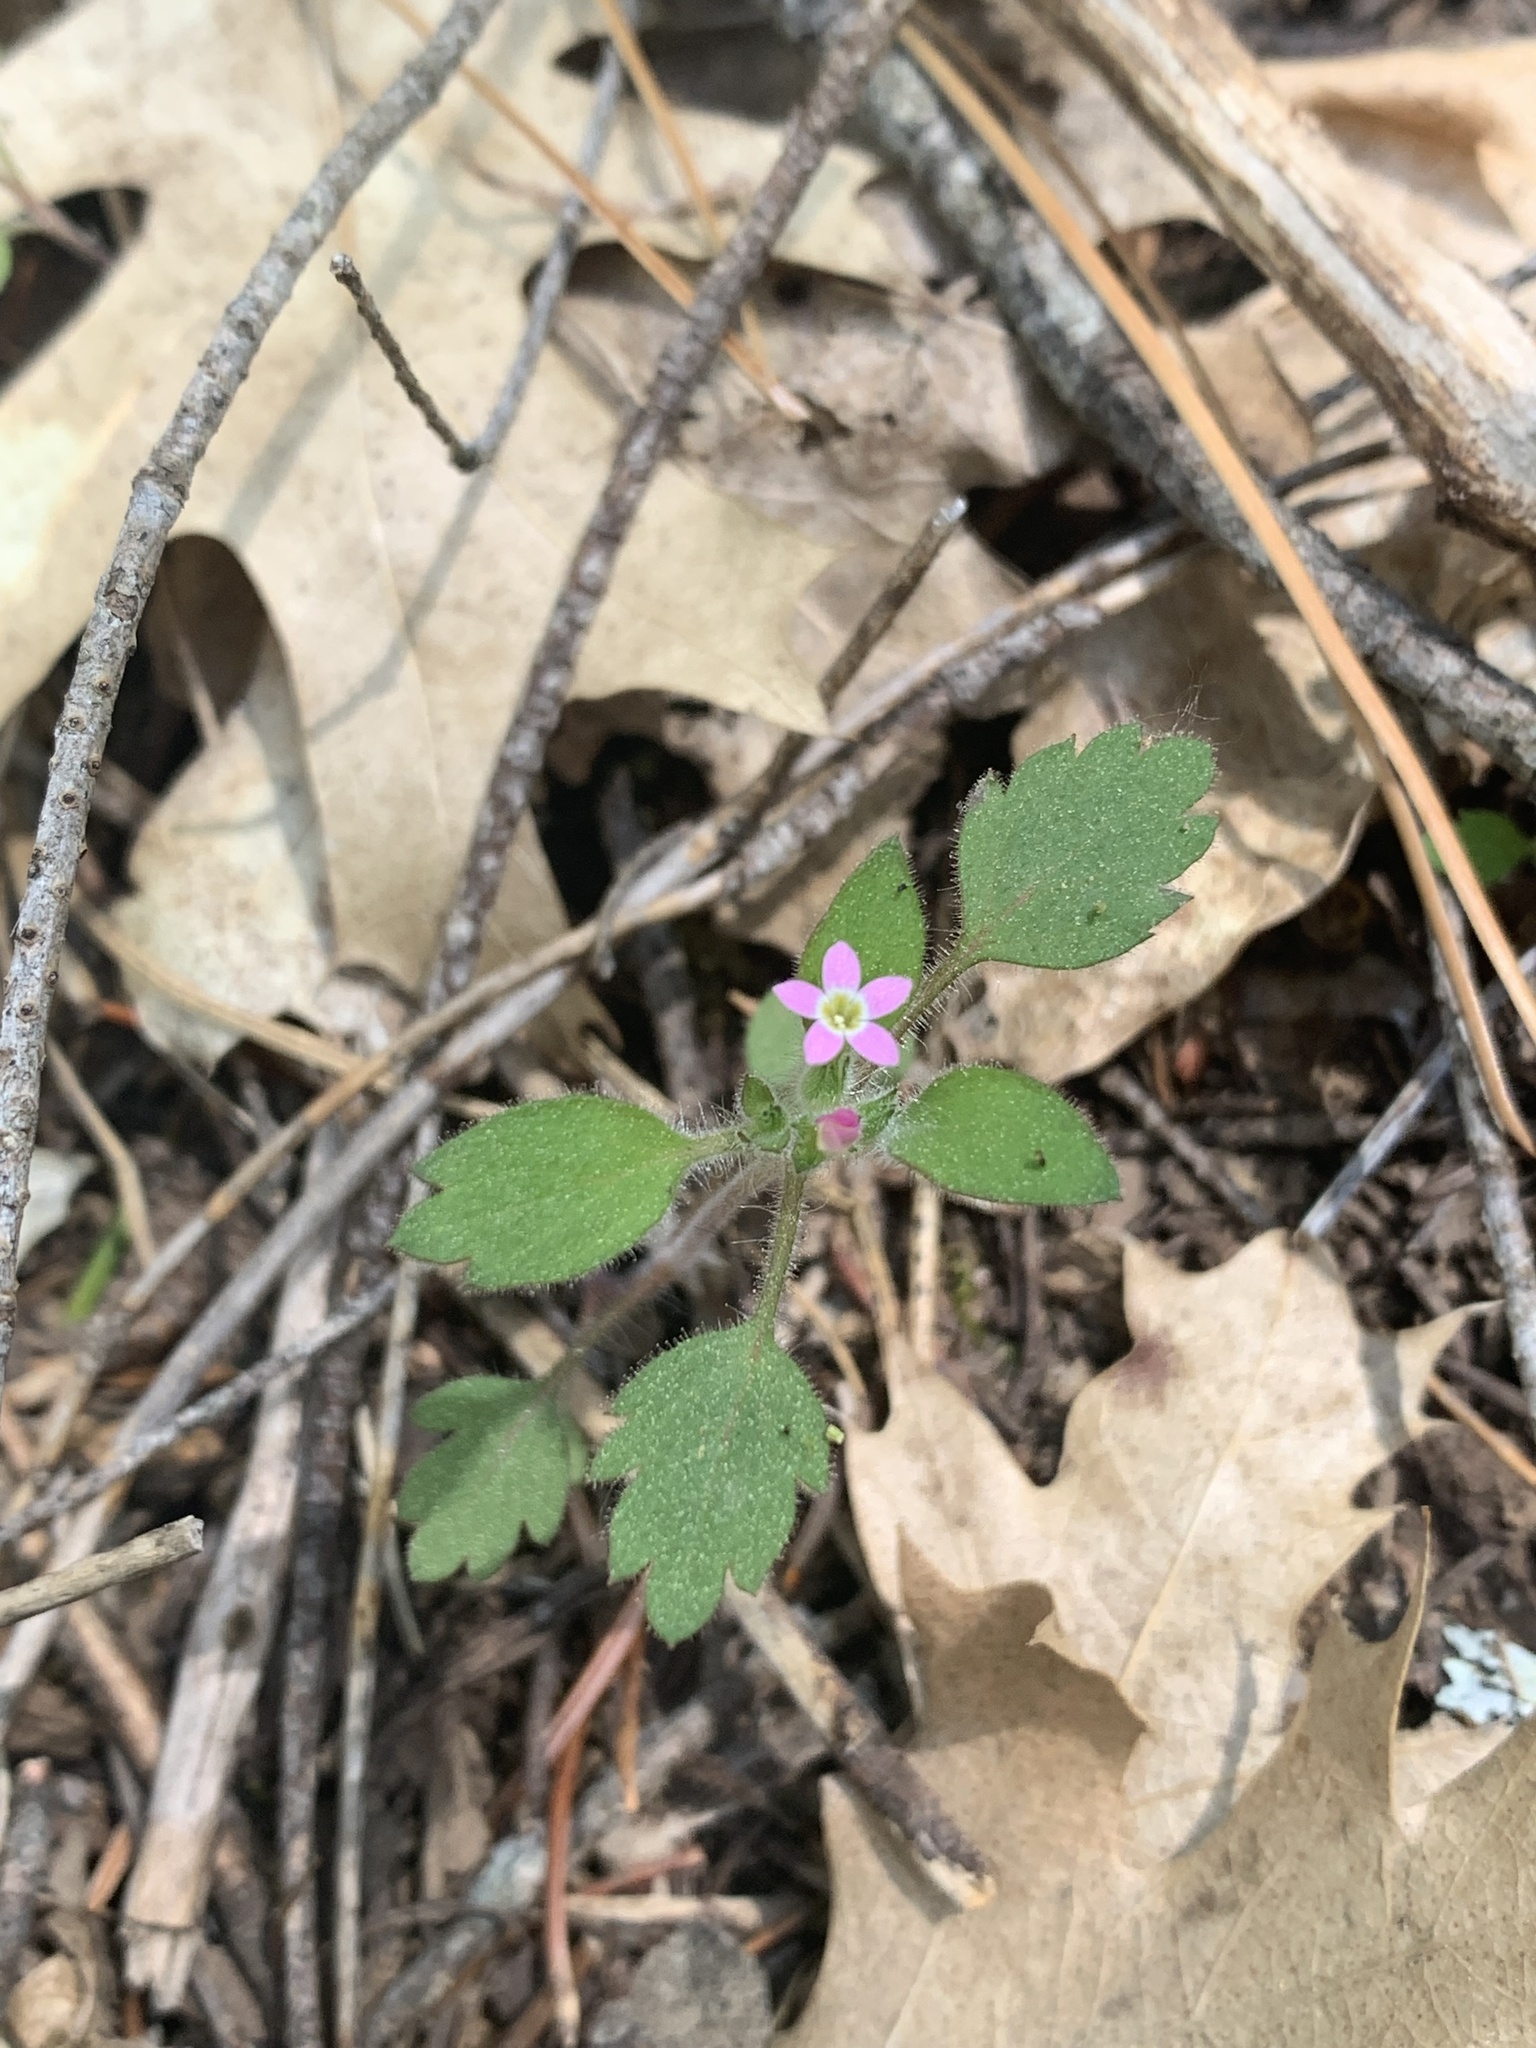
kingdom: Plantae
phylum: Tracheophyta
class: Magnoliopsida
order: Ericales
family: Polemoniaceae
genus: Collomia
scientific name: Collomia heterophylla
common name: Variable-leaved collomia
